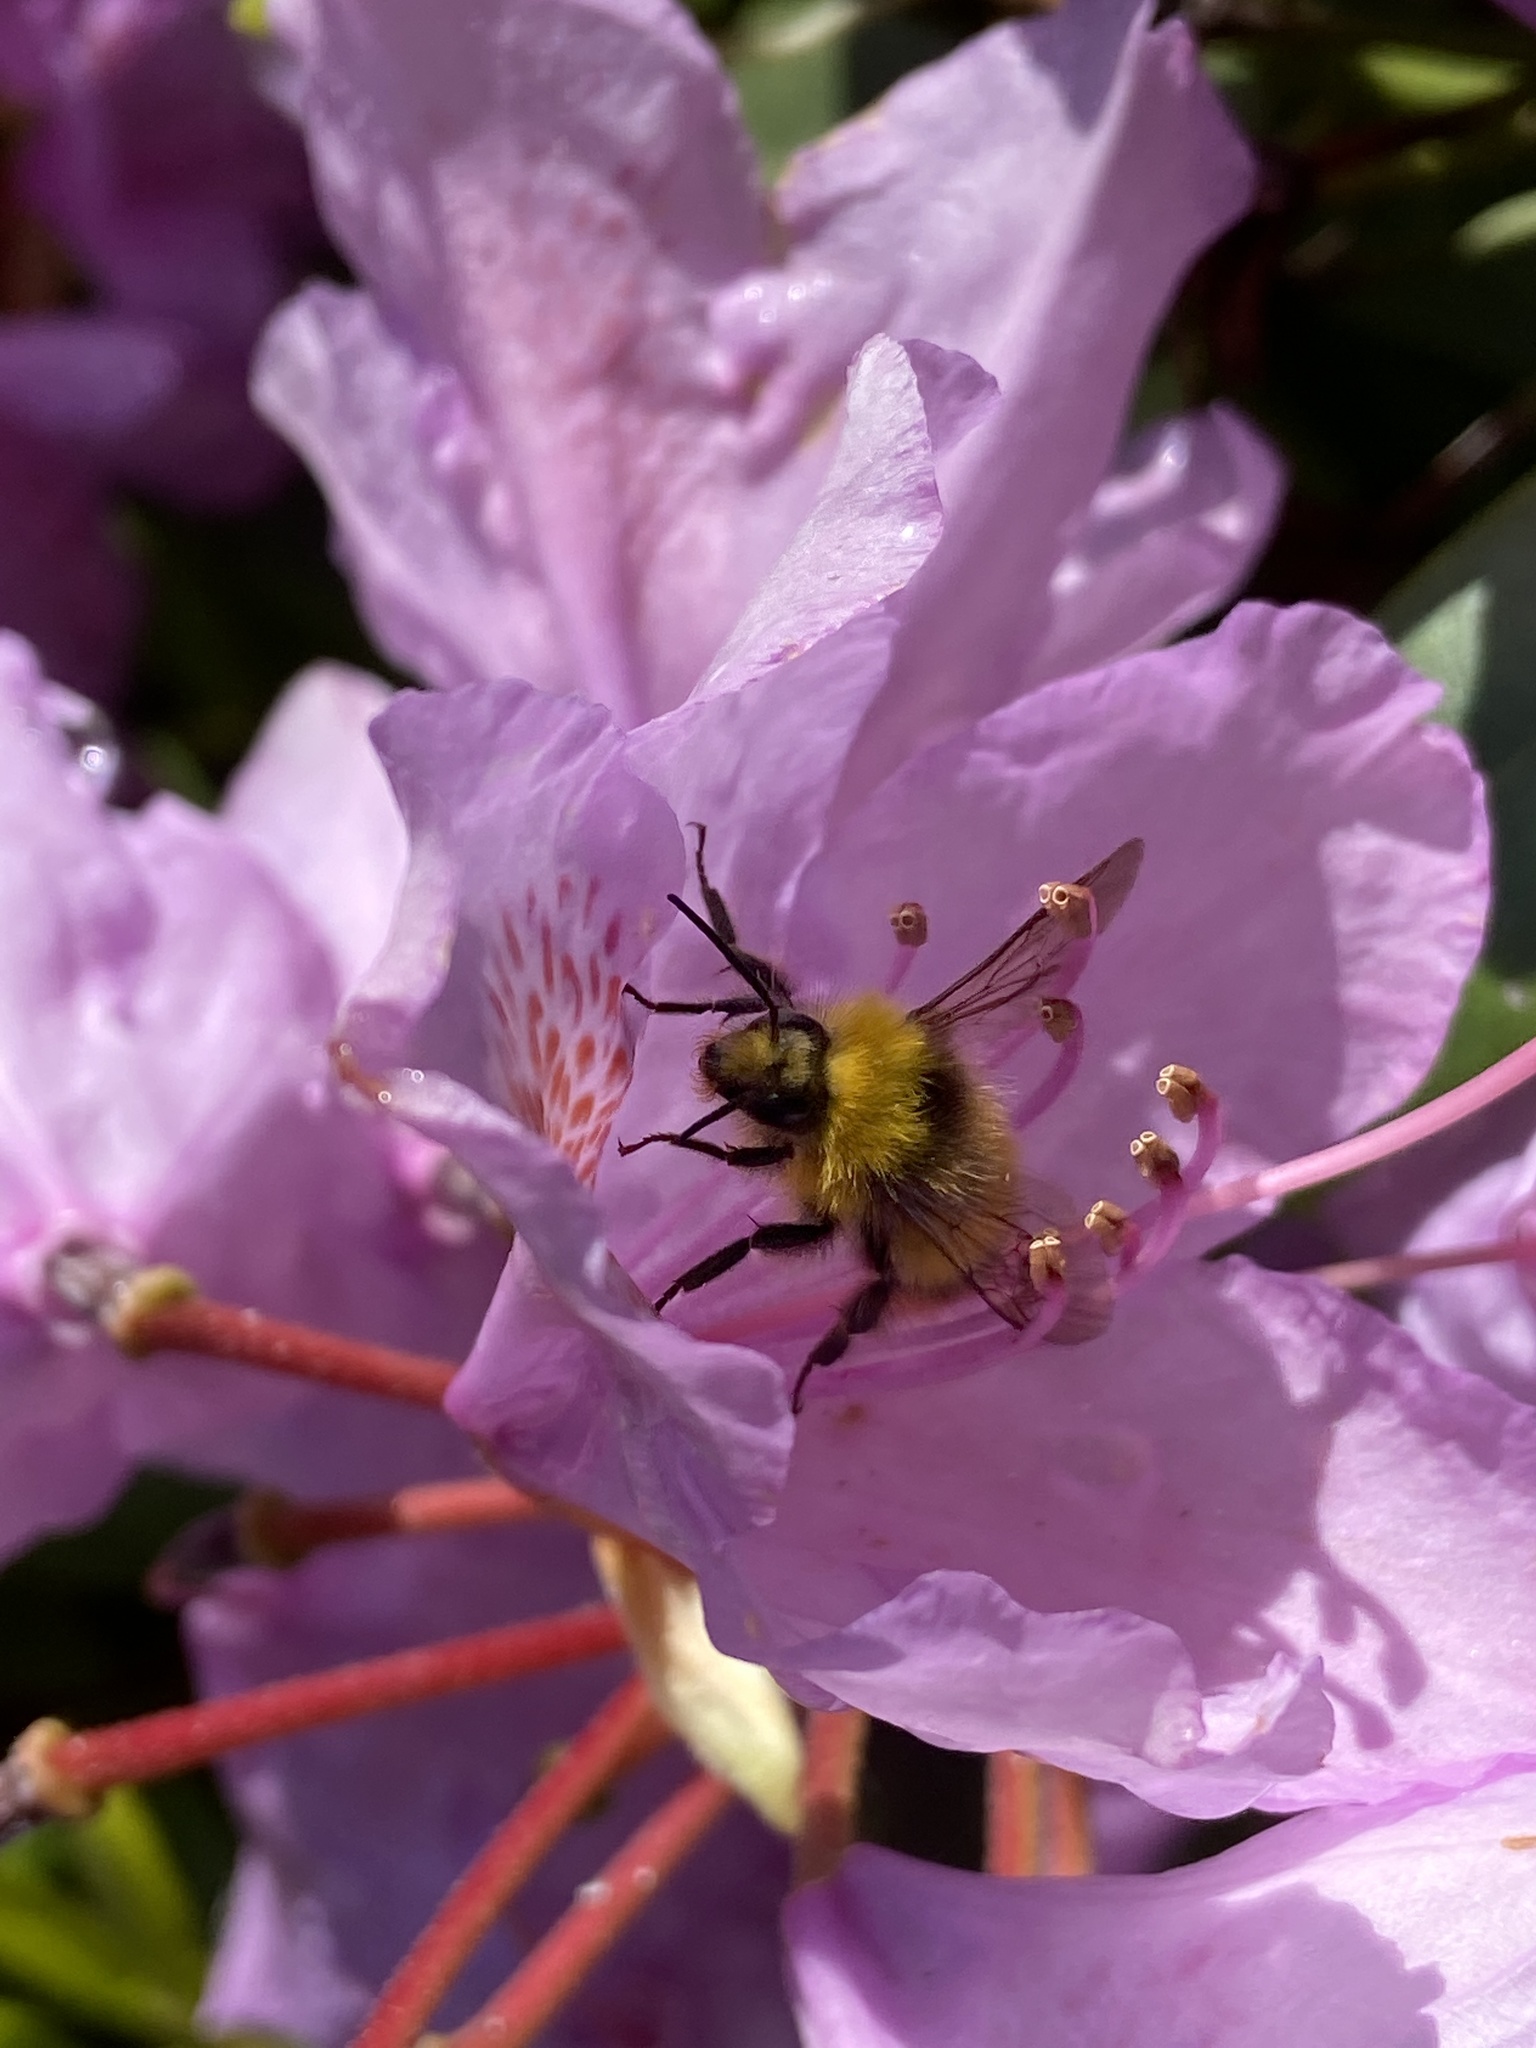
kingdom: Animalia
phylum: Arthropoda
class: Insecta
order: Hymenoptera
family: Apidae
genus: Bombus
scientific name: Bombus pratorum
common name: Early humble-bee
